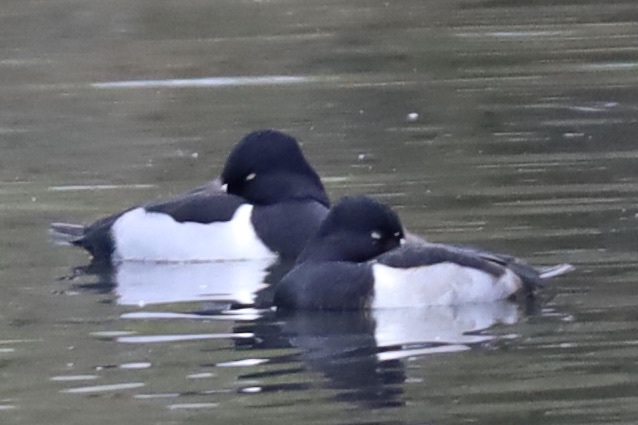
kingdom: Animalia
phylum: Chordata
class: Aves
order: Anseriformes
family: Anatidae
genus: Aythya
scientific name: Aythya collaris
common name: Ring-necked duck
